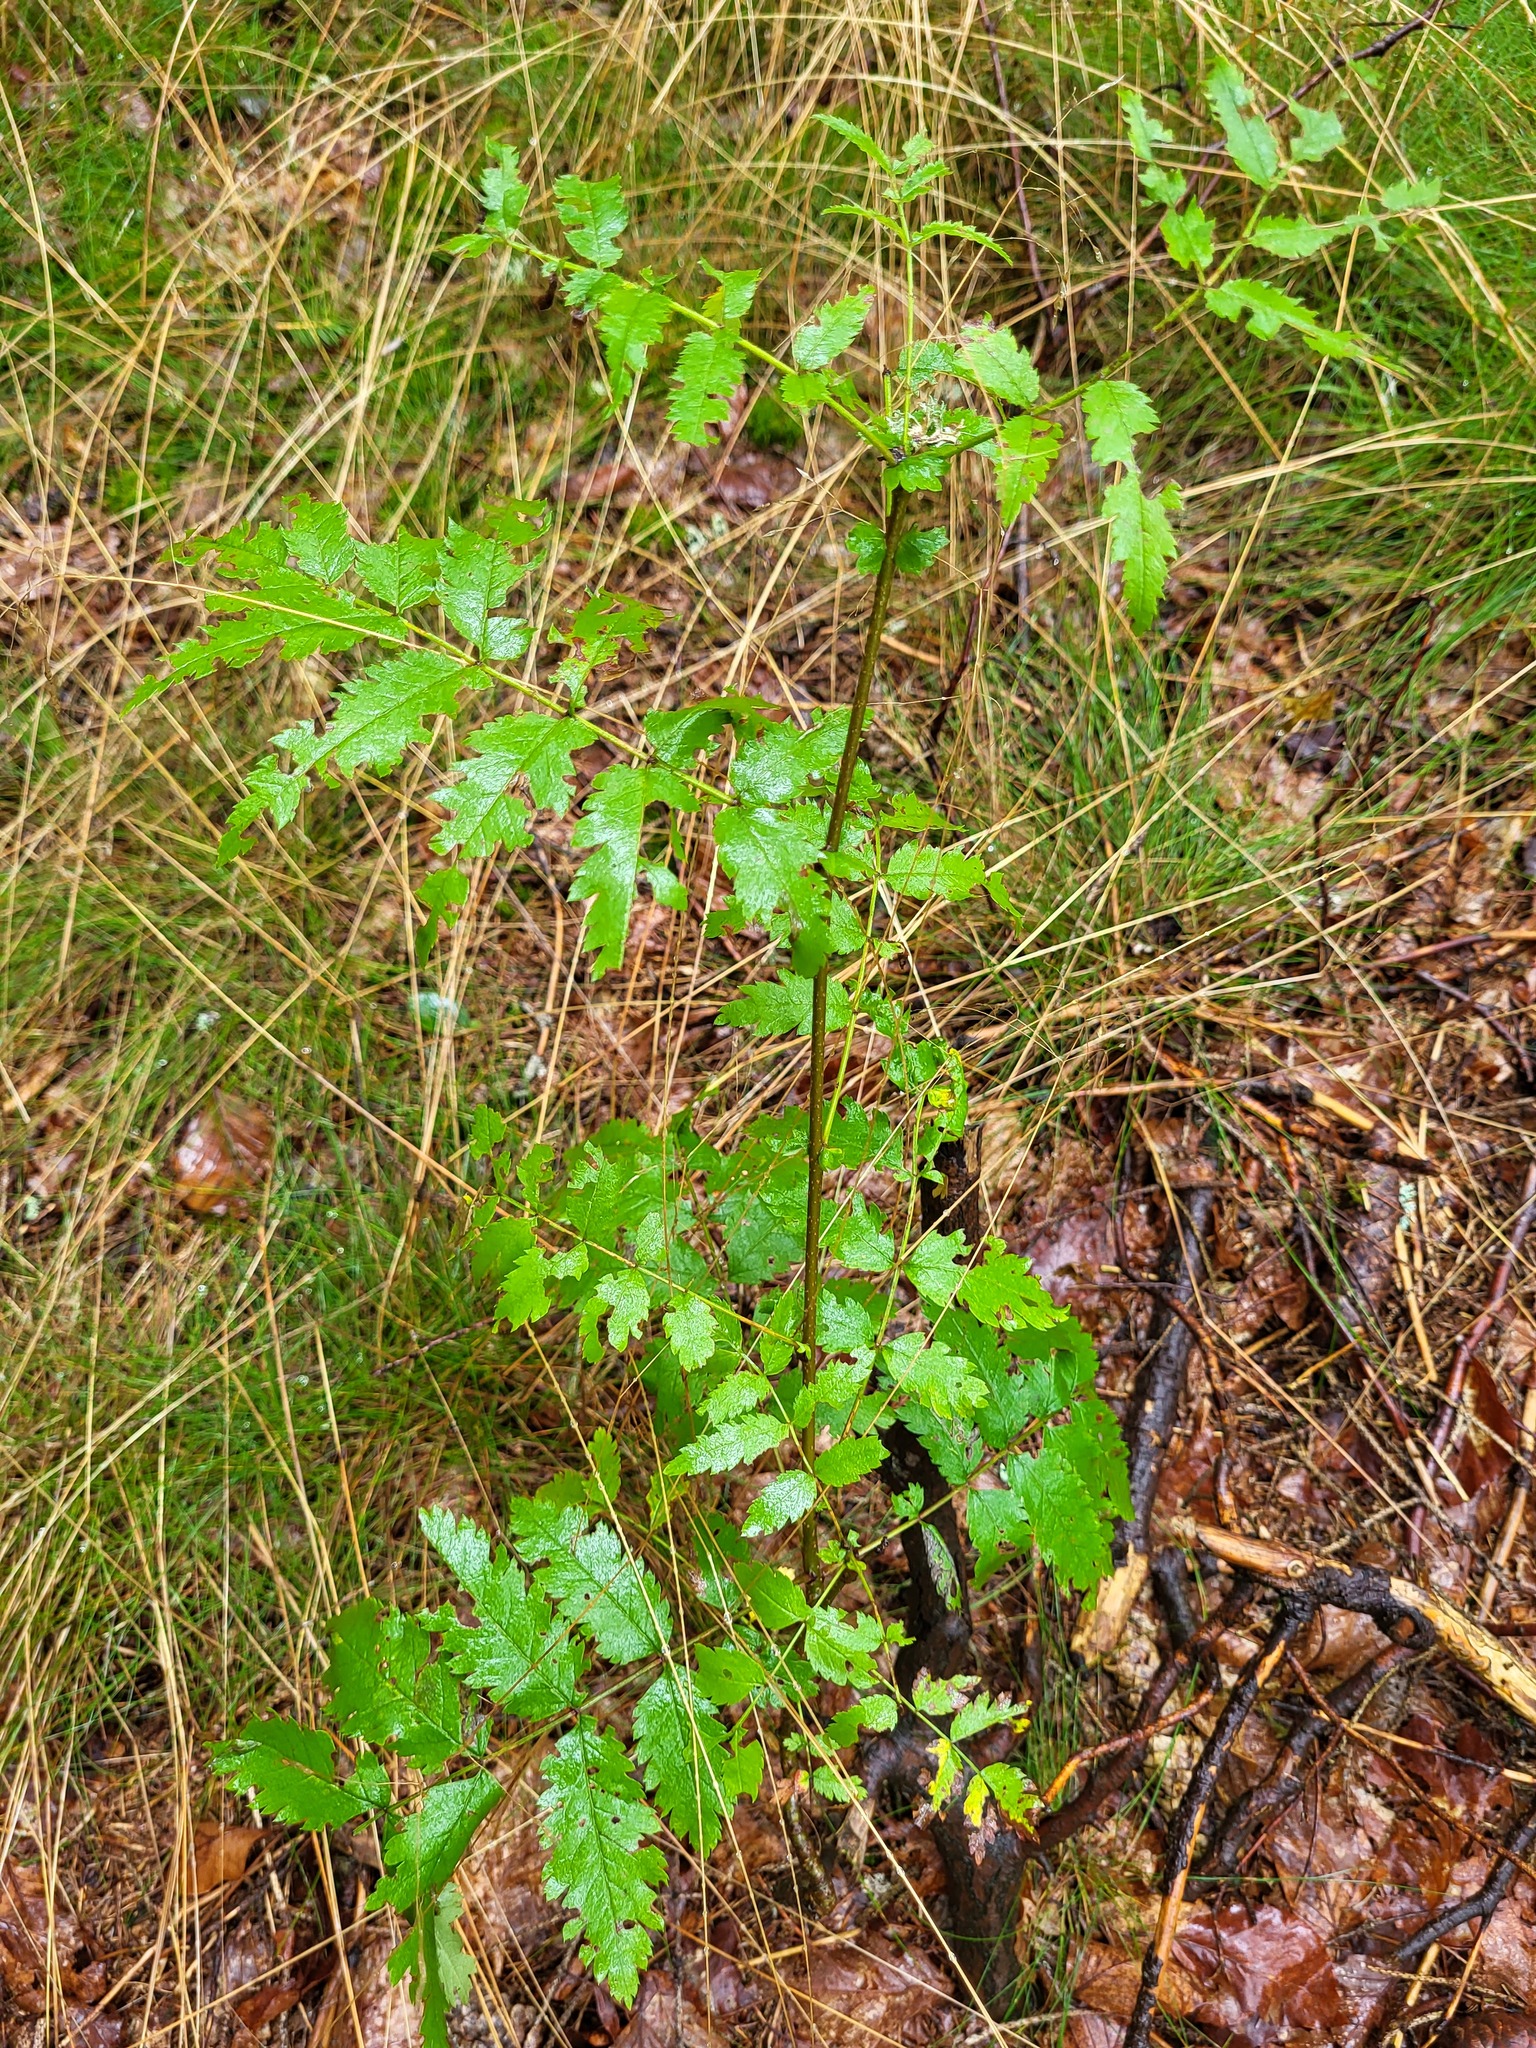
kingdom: Plantae
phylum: Tracheophyta
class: Magnoliopsida
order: Rosales
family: Rosaceae
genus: Sorbus
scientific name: Sorbus aucuparia
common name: Rowan
